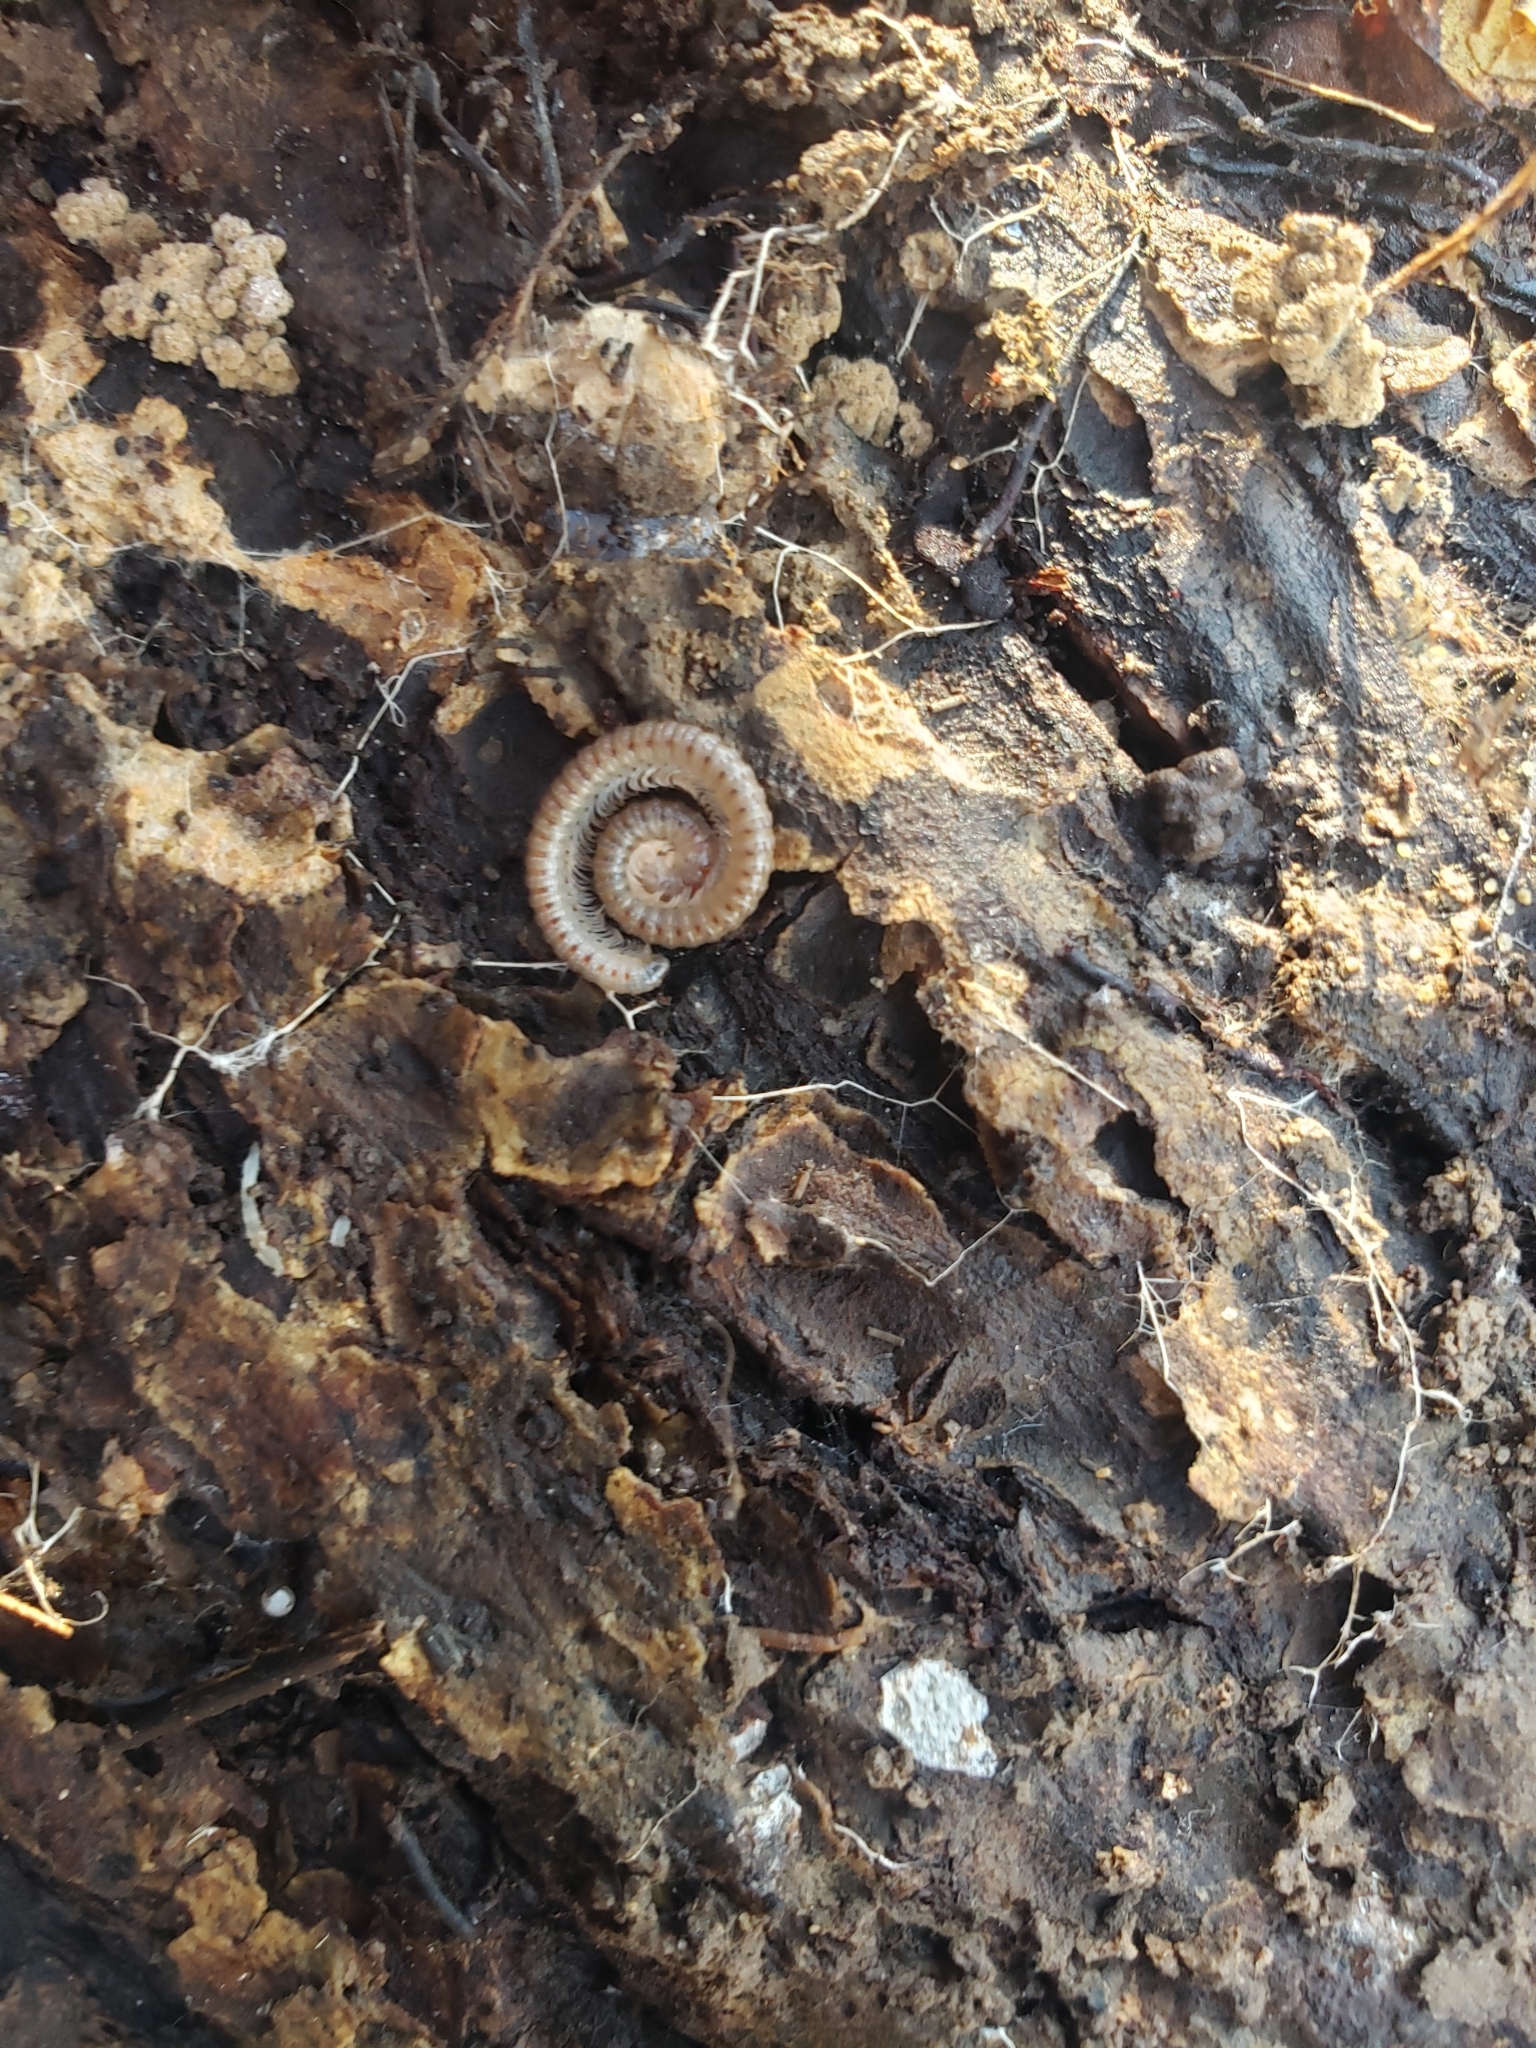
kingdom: Animalia
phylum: Arthropoda
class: Diplopoda
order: Spirostreptida
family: Cambalidae
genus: Cambala
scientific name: Cambala minor
